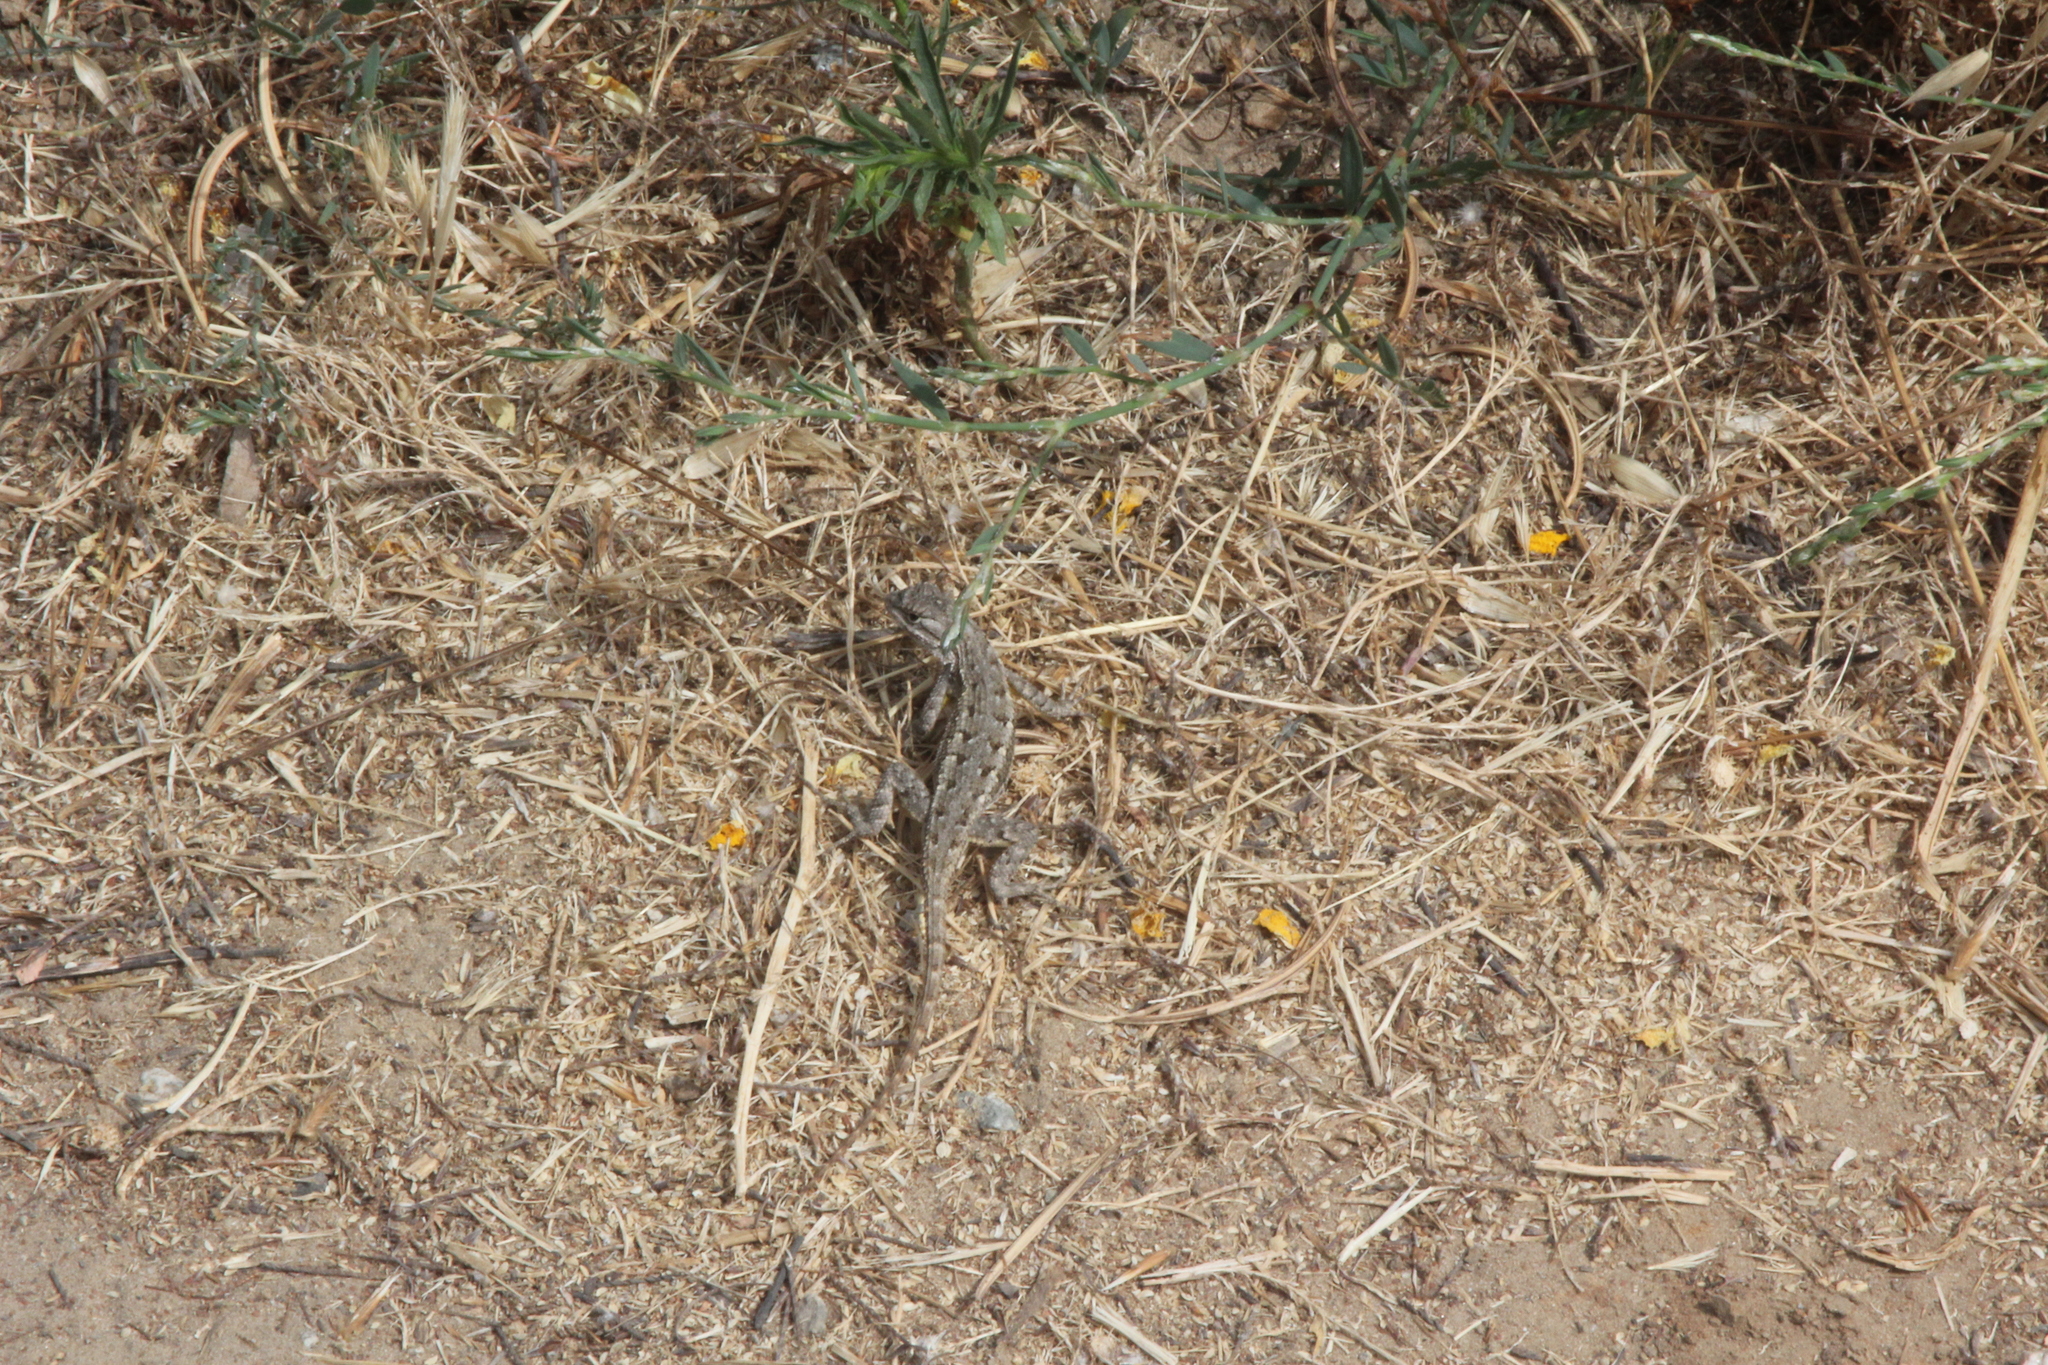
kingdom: Animalia
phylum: Chordata
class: Squamata
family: Phrynosomatidae
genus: Sceloporus
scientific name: Sceloporus occidentalis
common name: Western fence lizard
